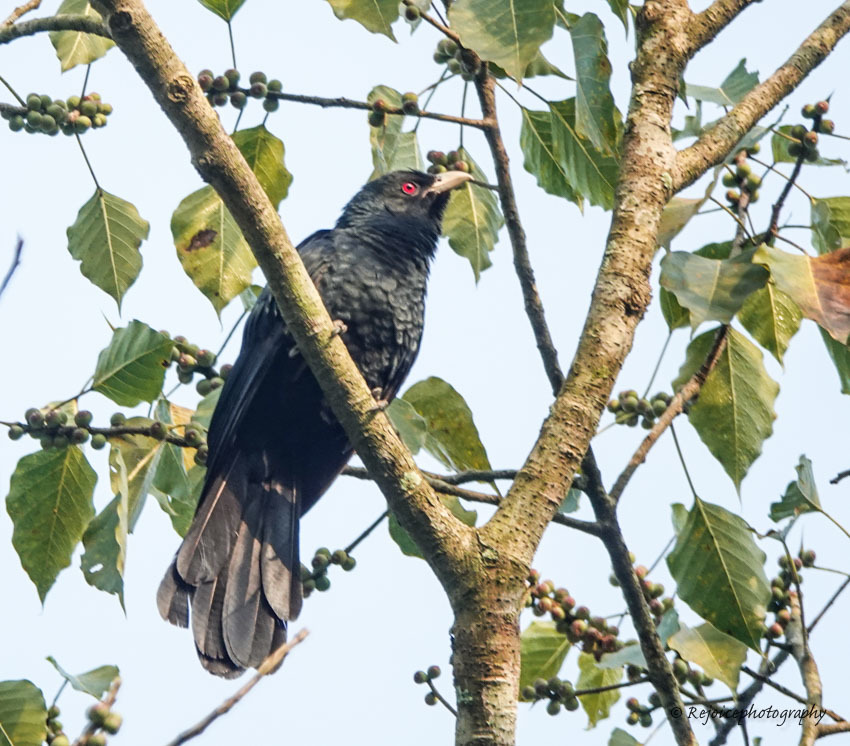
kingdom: Animalia
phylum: Chordata
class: Aves
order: Cuculiformes
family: Cuculidae
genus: Eudynamys
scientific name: Eudynamys scolopaceus
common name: Asian koel
